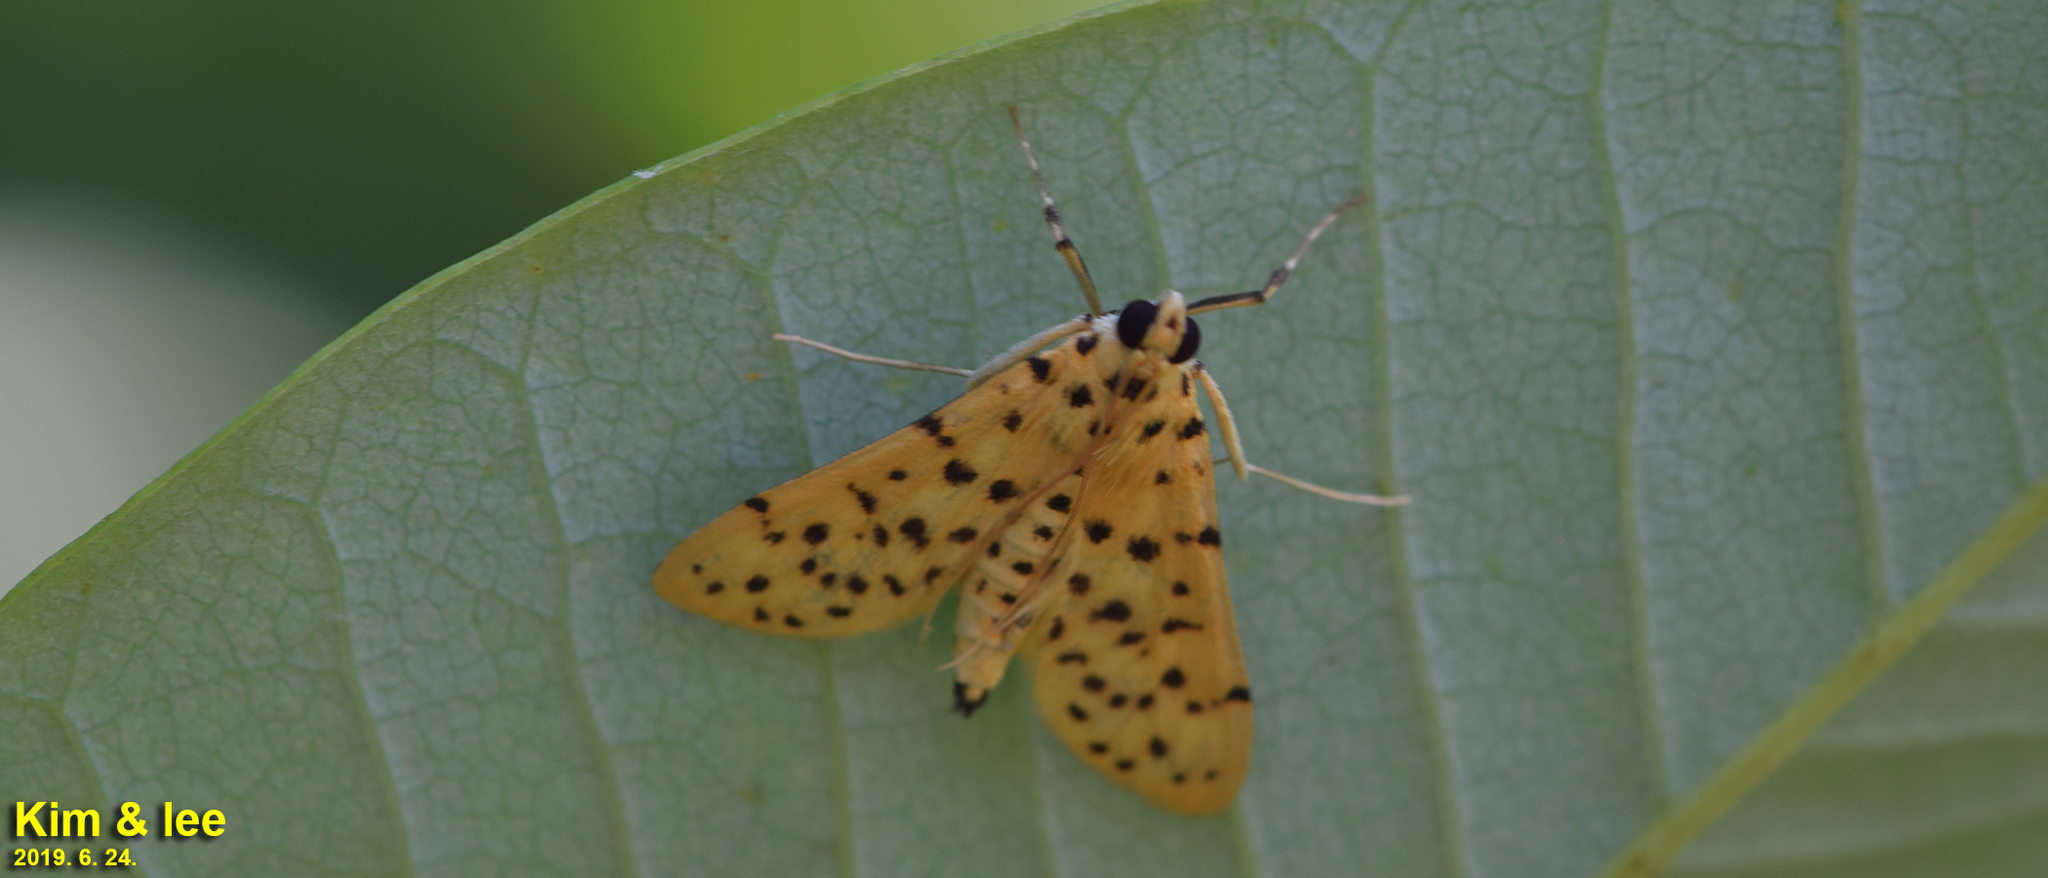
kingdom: Animalia
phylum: Arthropoda
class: Insecta
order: Lepidoptera
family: Crambidae
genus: Conogethes
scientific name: Conogethes punctiferalis
